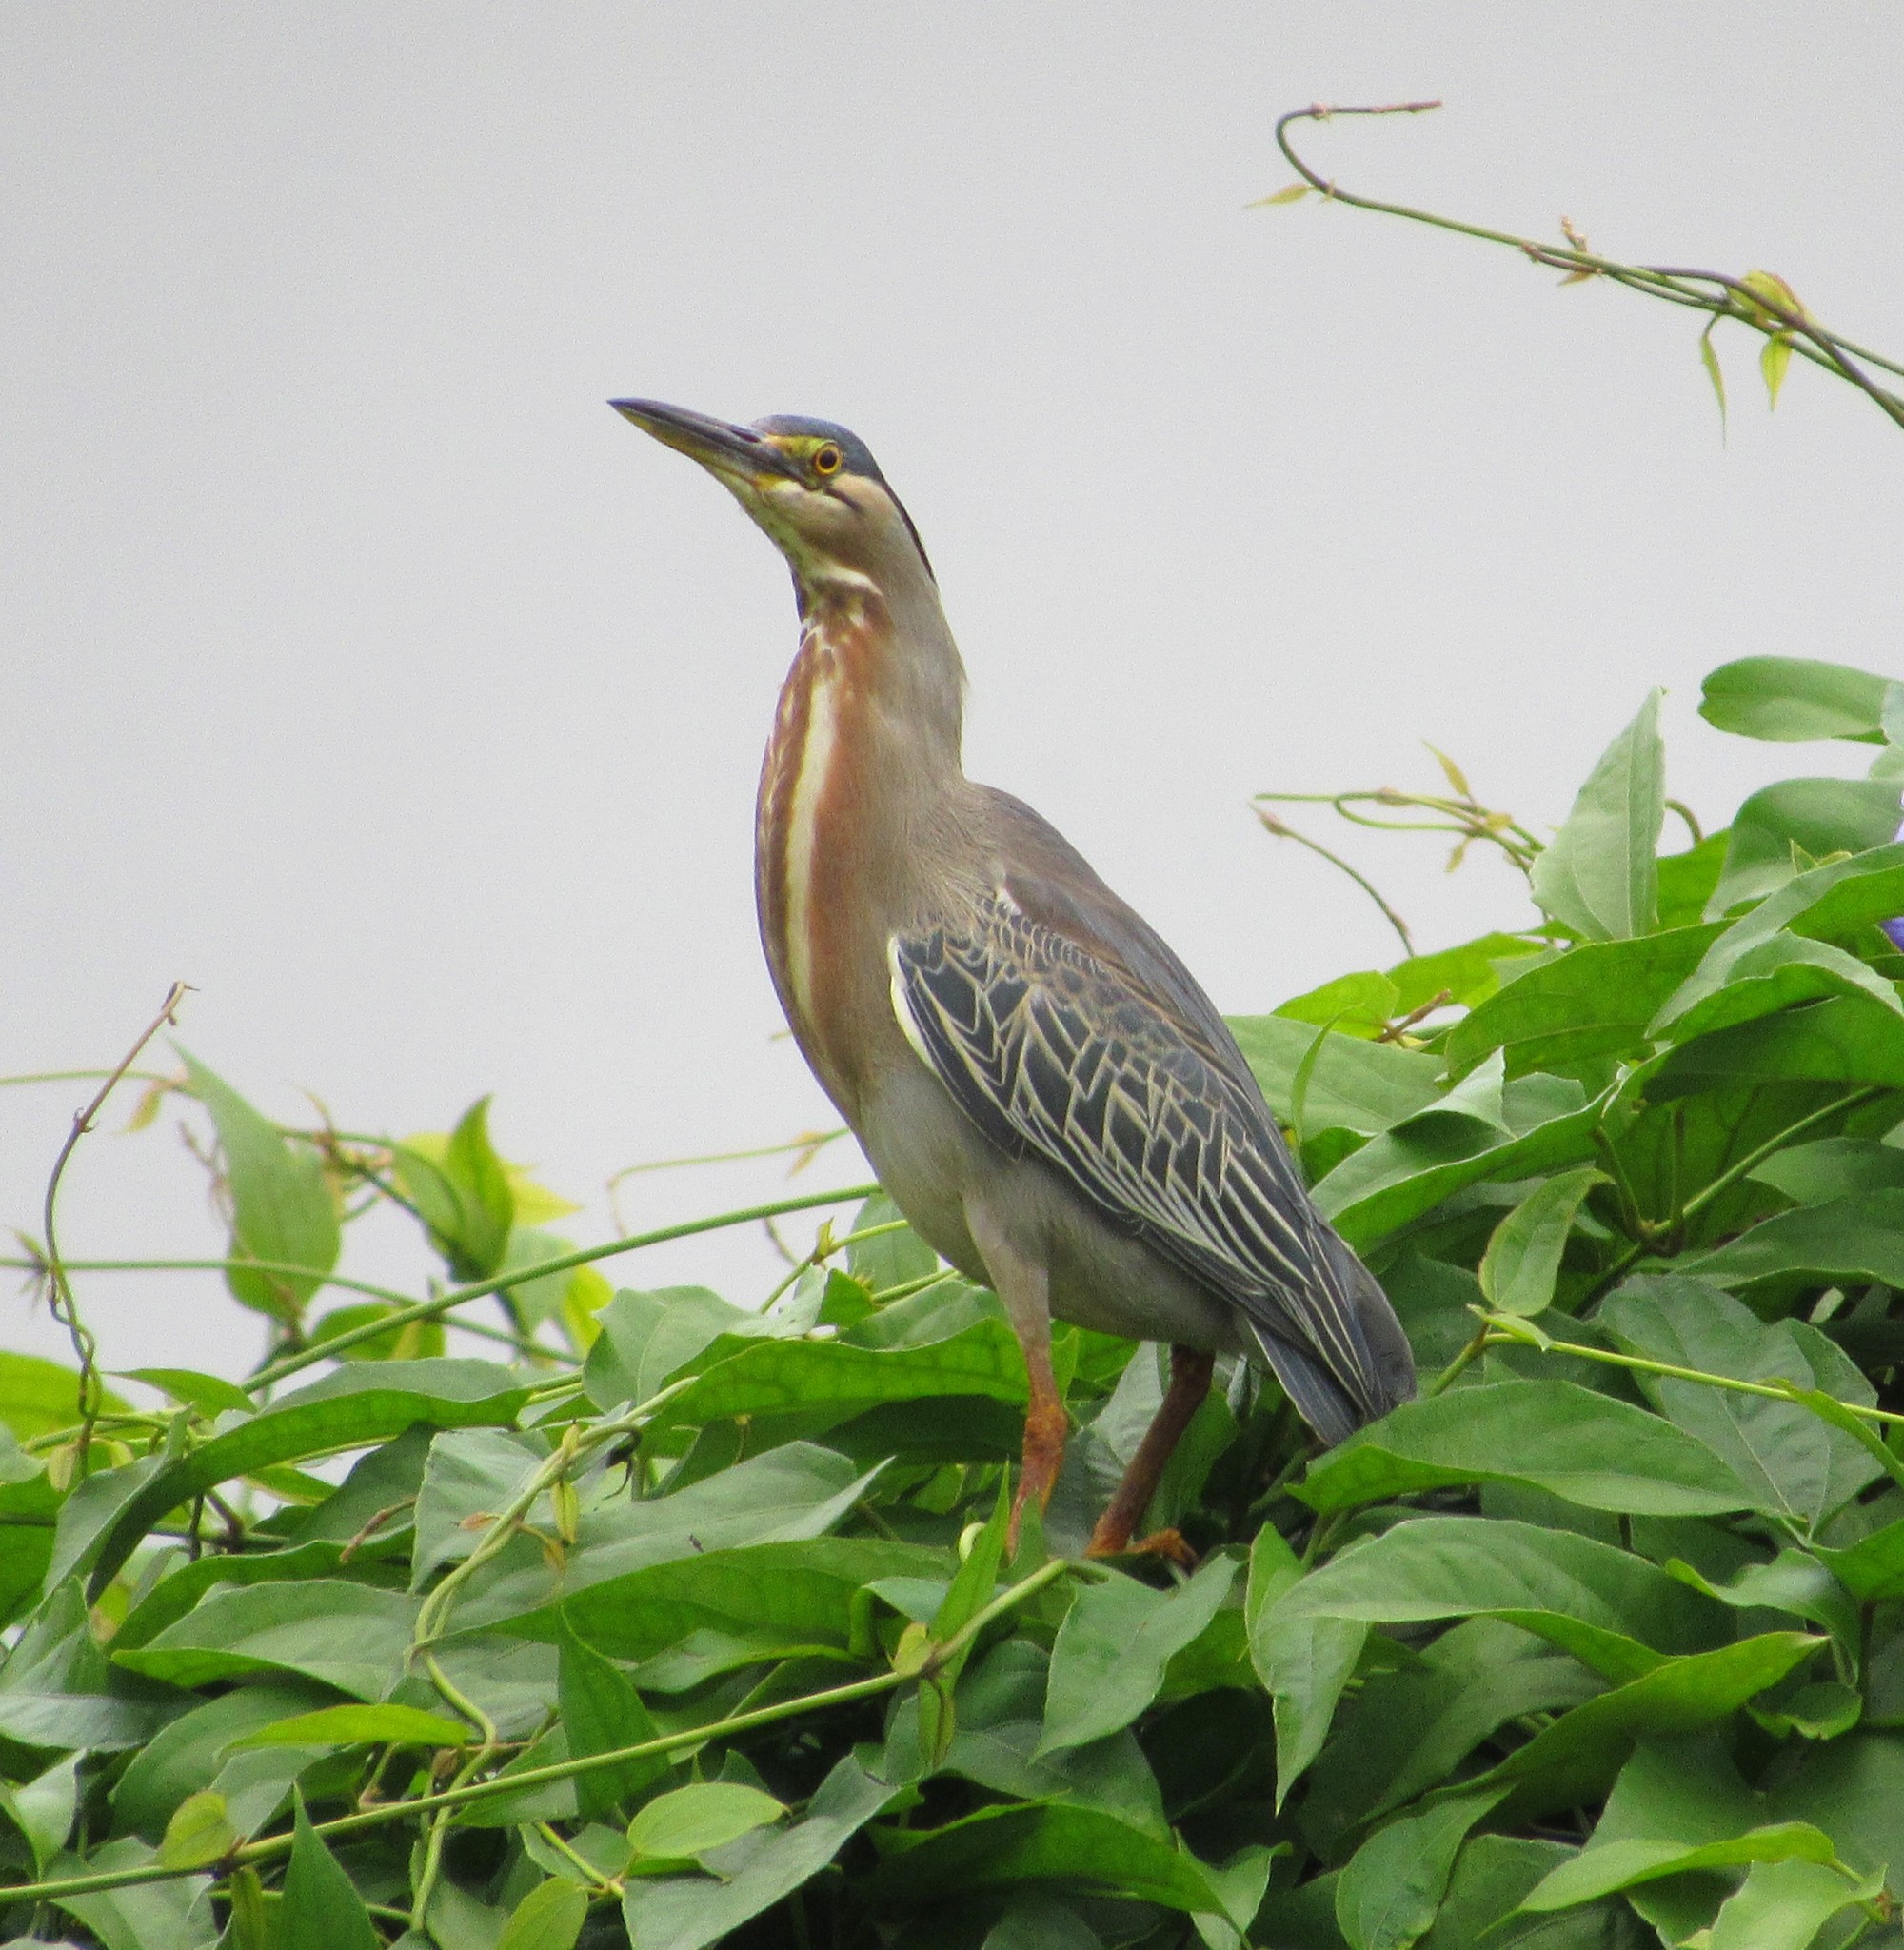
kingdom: Animalia
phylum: Chordata
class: Aves
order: Pelecaniformes
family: Ardeidae
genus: Butorides
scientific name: Butorides striata
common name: Striated heron
